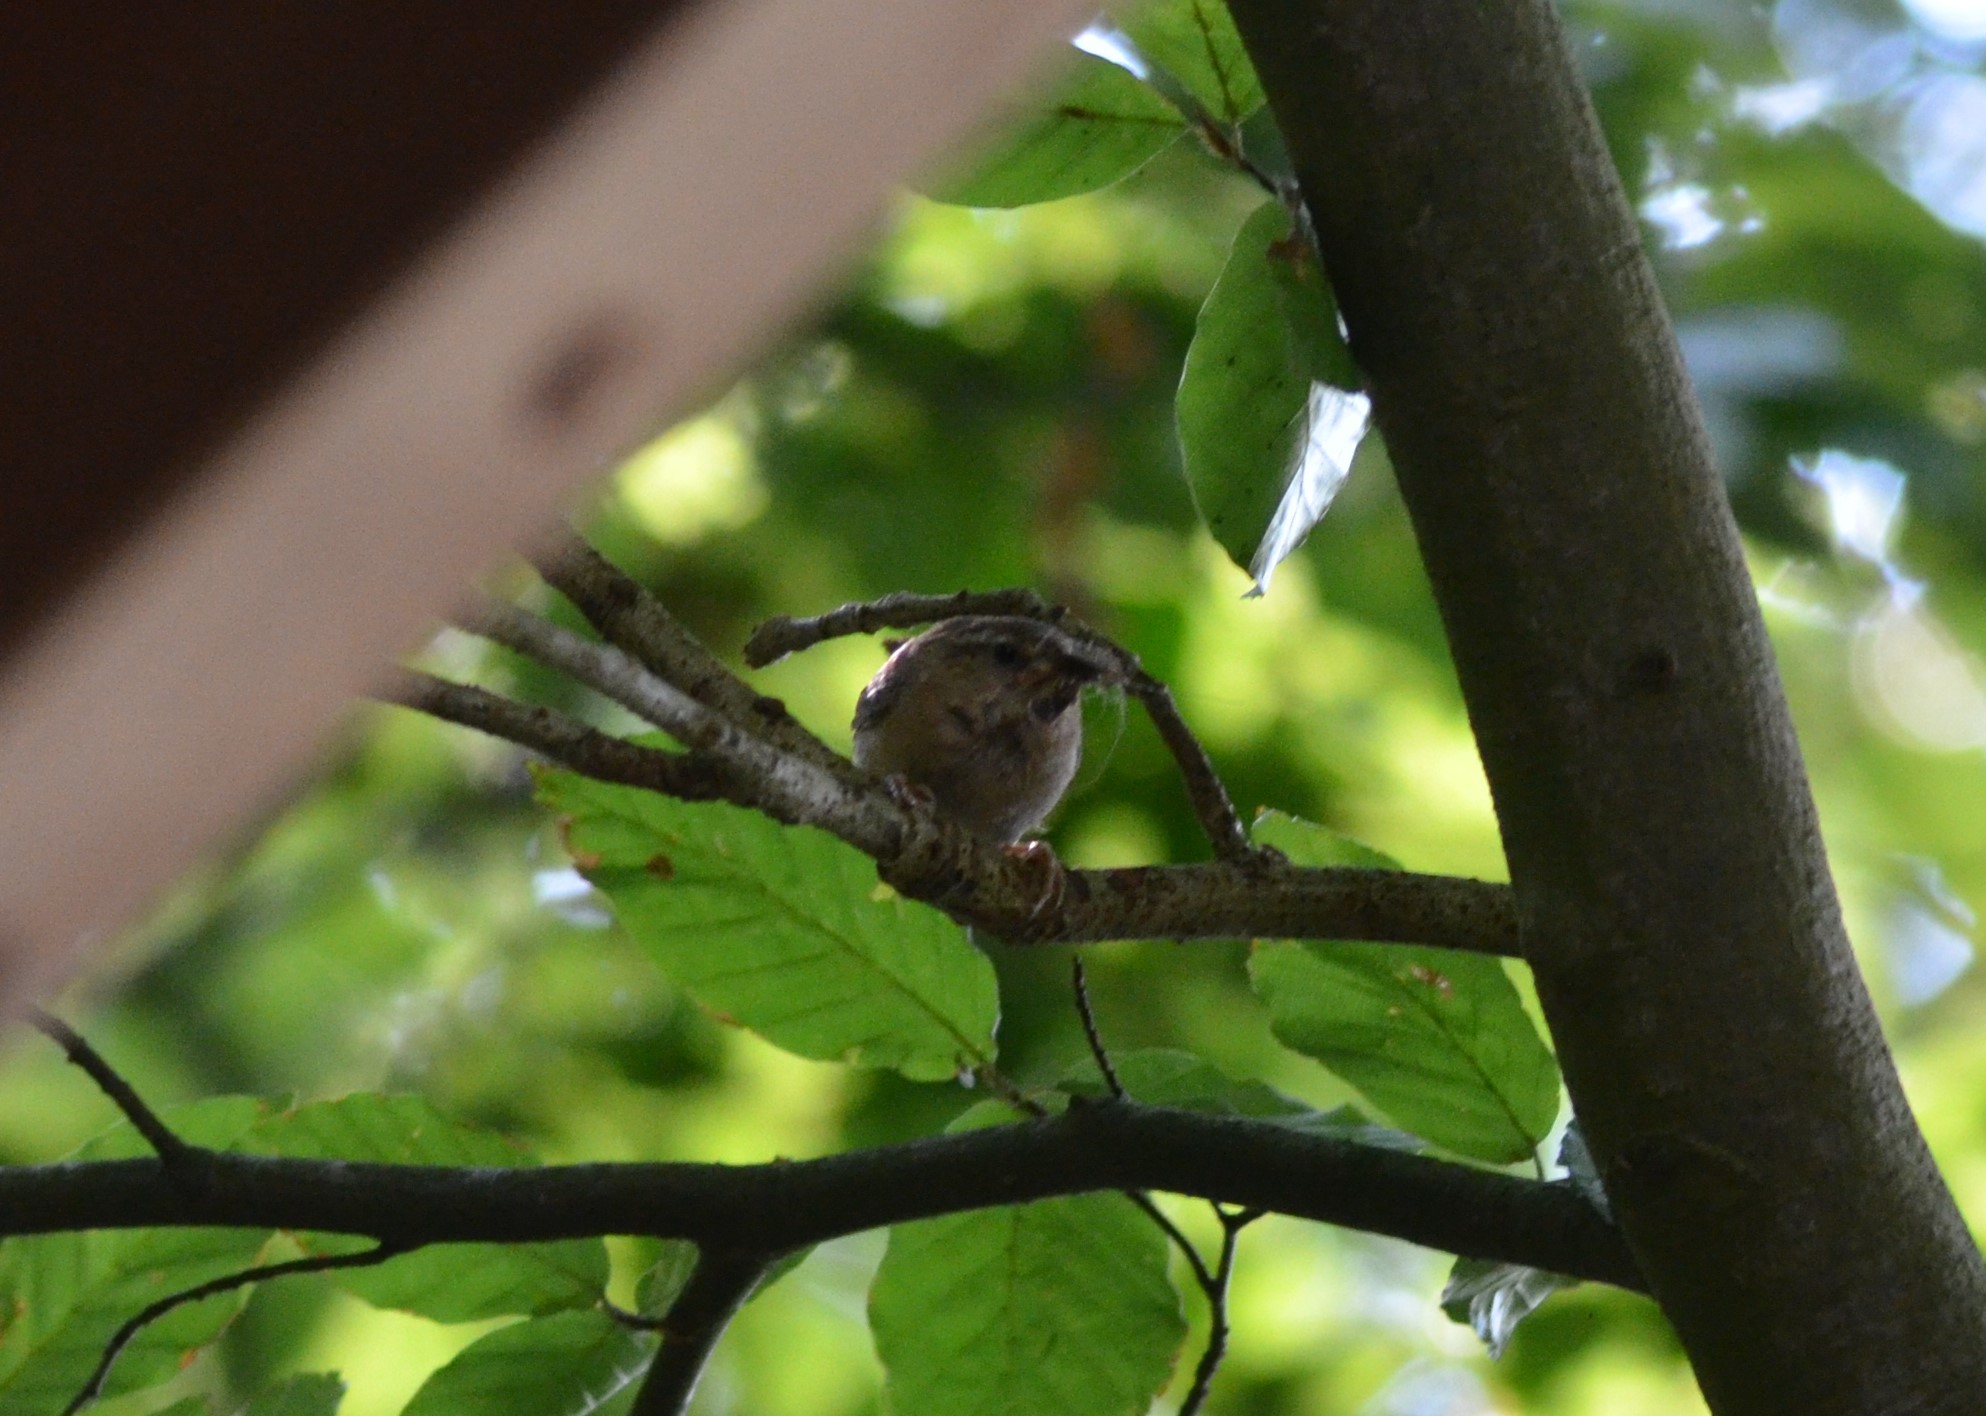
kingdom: Animalia
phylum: Chordata
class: Aves
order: Passeriformes
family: Troglodytidae
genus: Troglodytes
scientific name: Troglodytes troglodytes
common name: Eurasian wren
